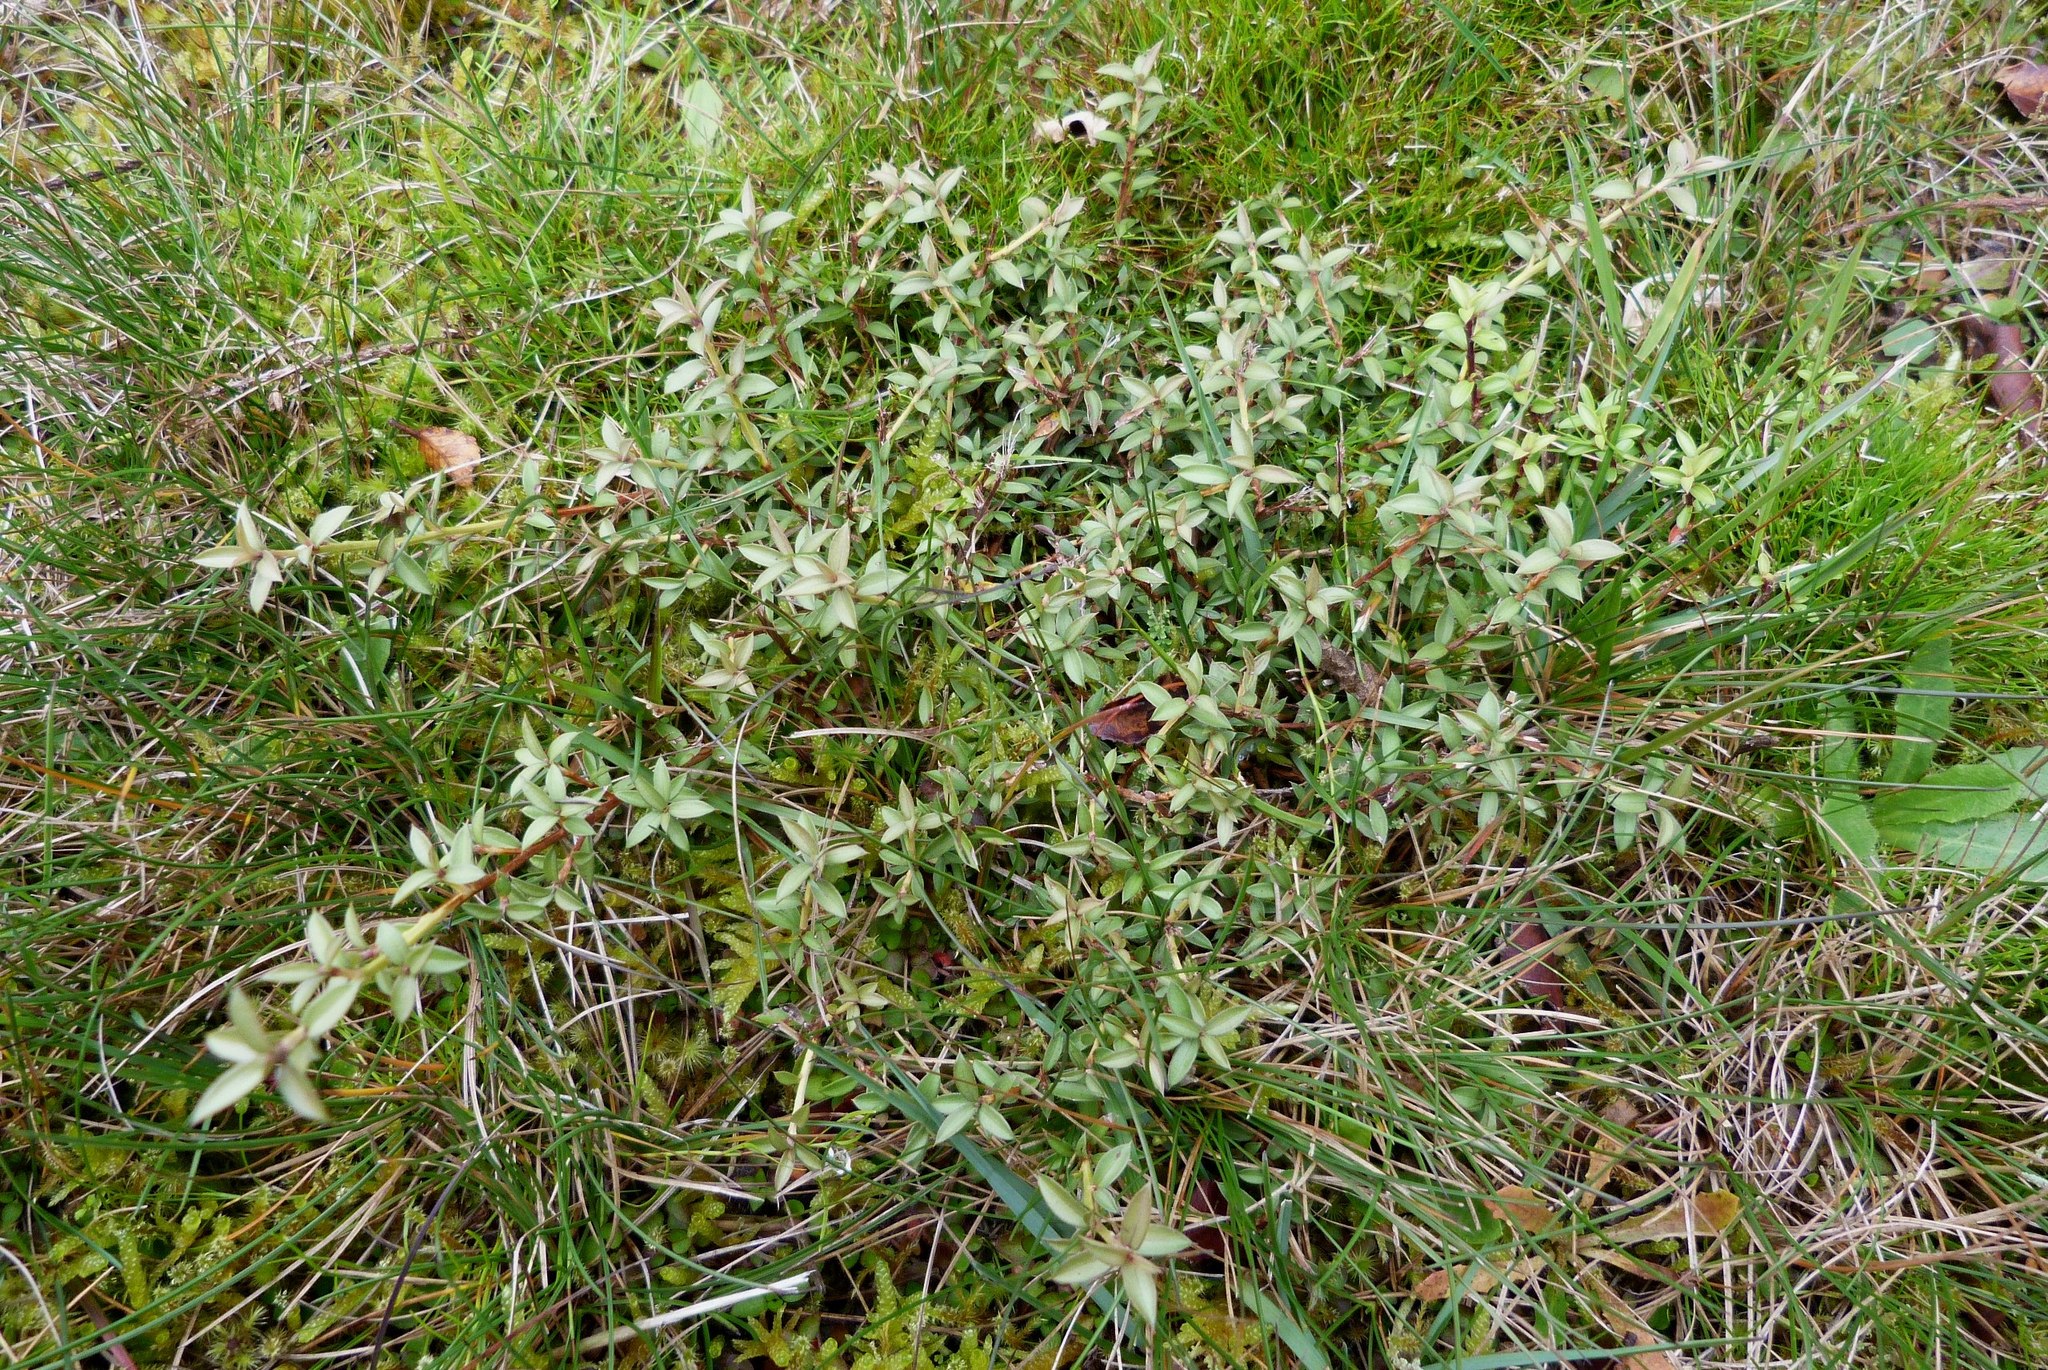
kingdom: Plantae
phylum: Tracheophyta
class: Magnoliopsida
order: Myrtales
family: Myrtaceae
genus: Leptospermum
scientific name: Leptospermum scoparium
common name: Broom tea-tree
